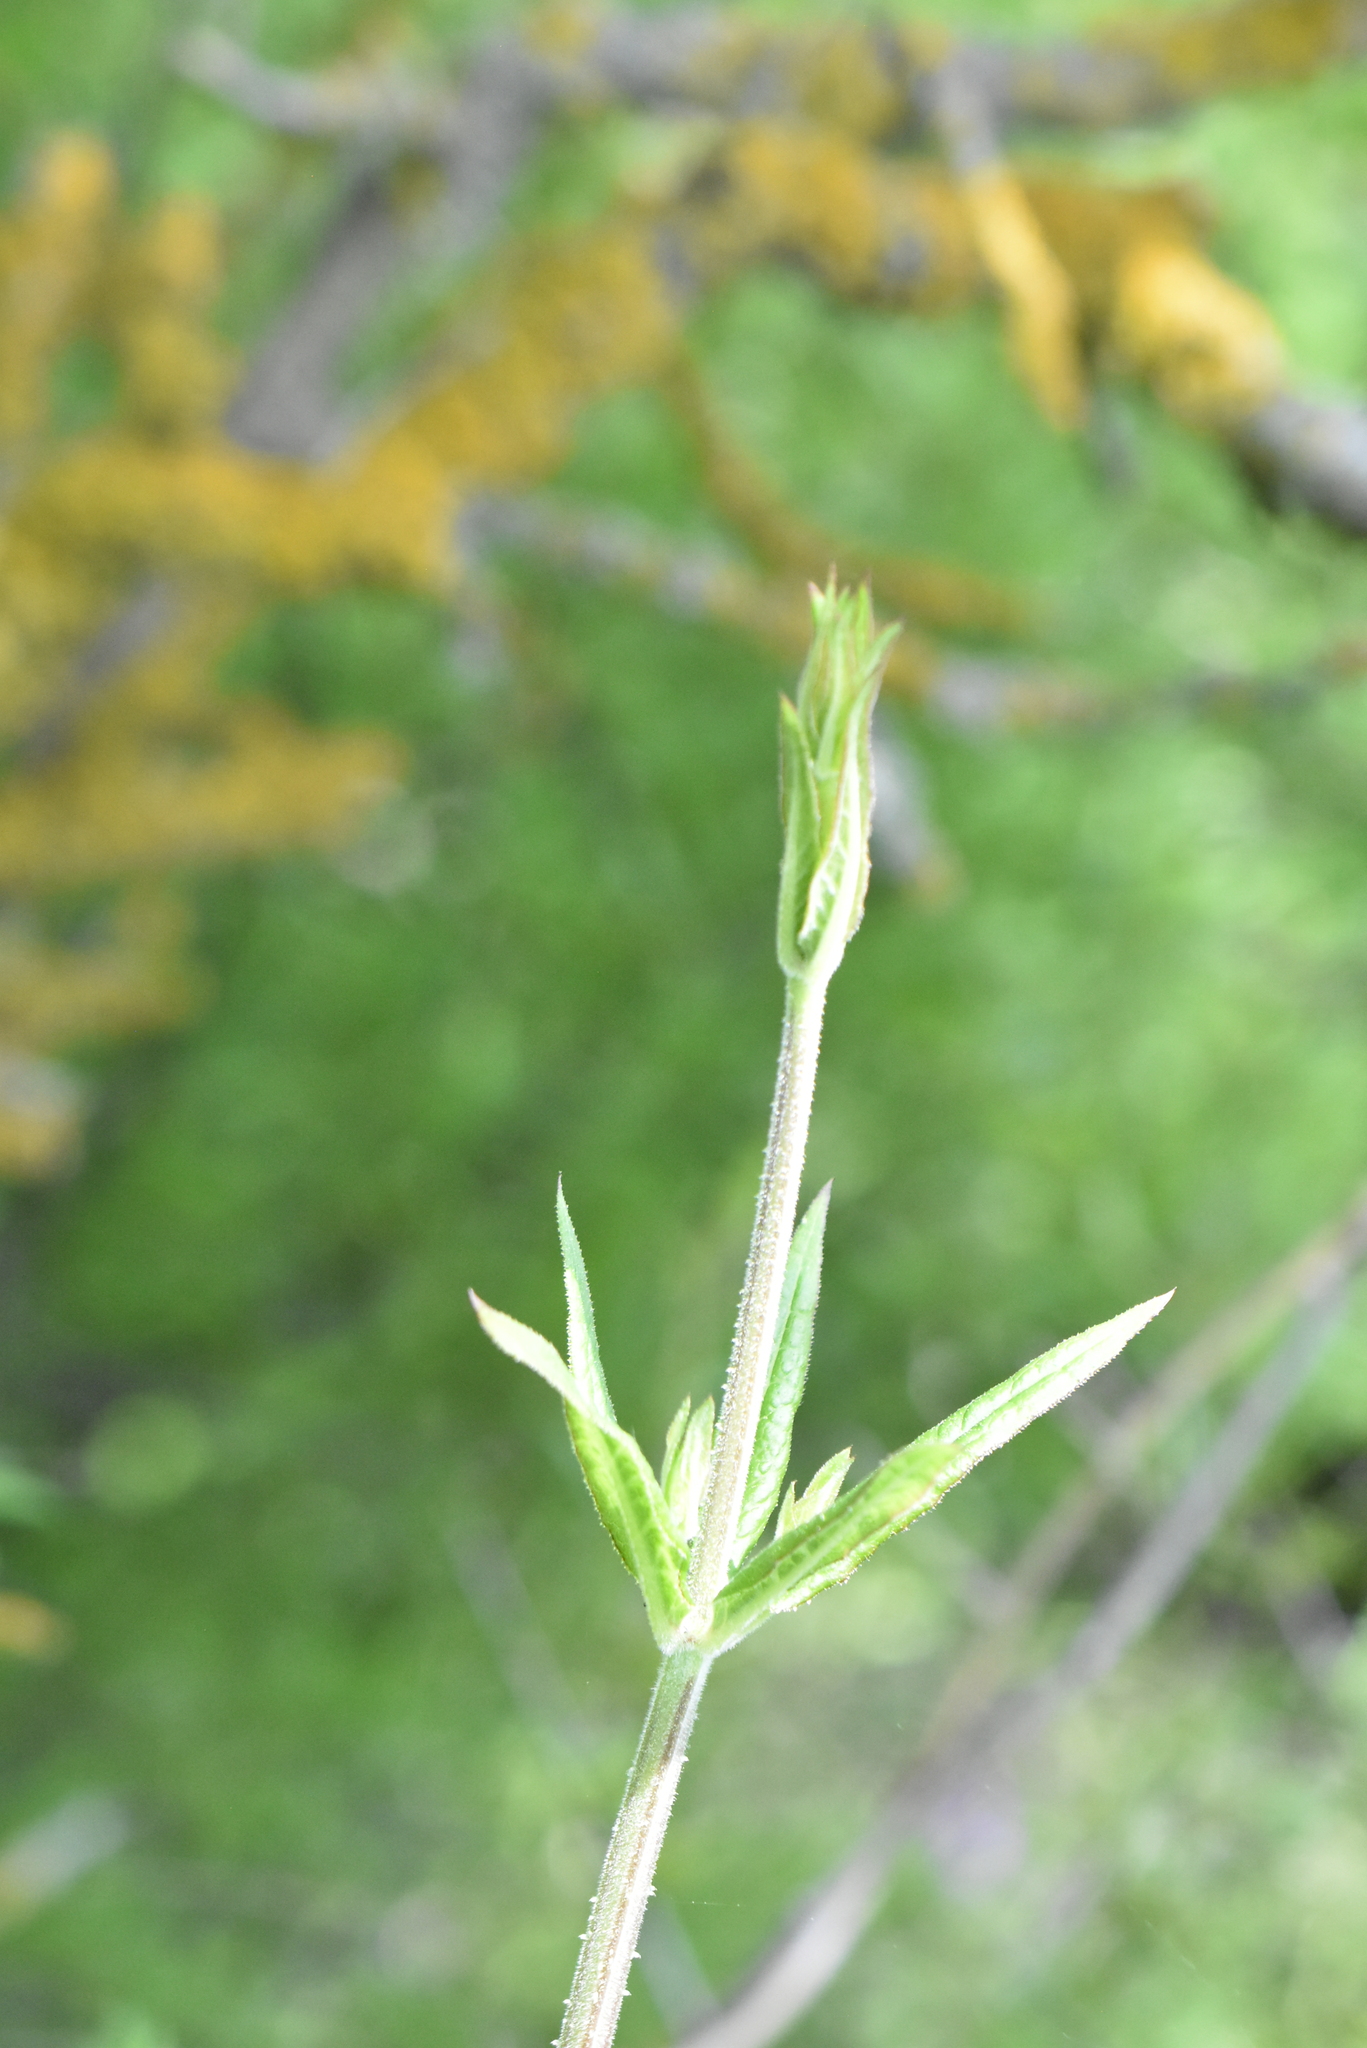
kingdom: Plantae
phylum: Tracheophyta
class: Magnoliopsida
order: Gentianales
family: Rubiaceae
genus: Rubia
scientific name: Rubia tinctorum
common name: Dyer's madder
